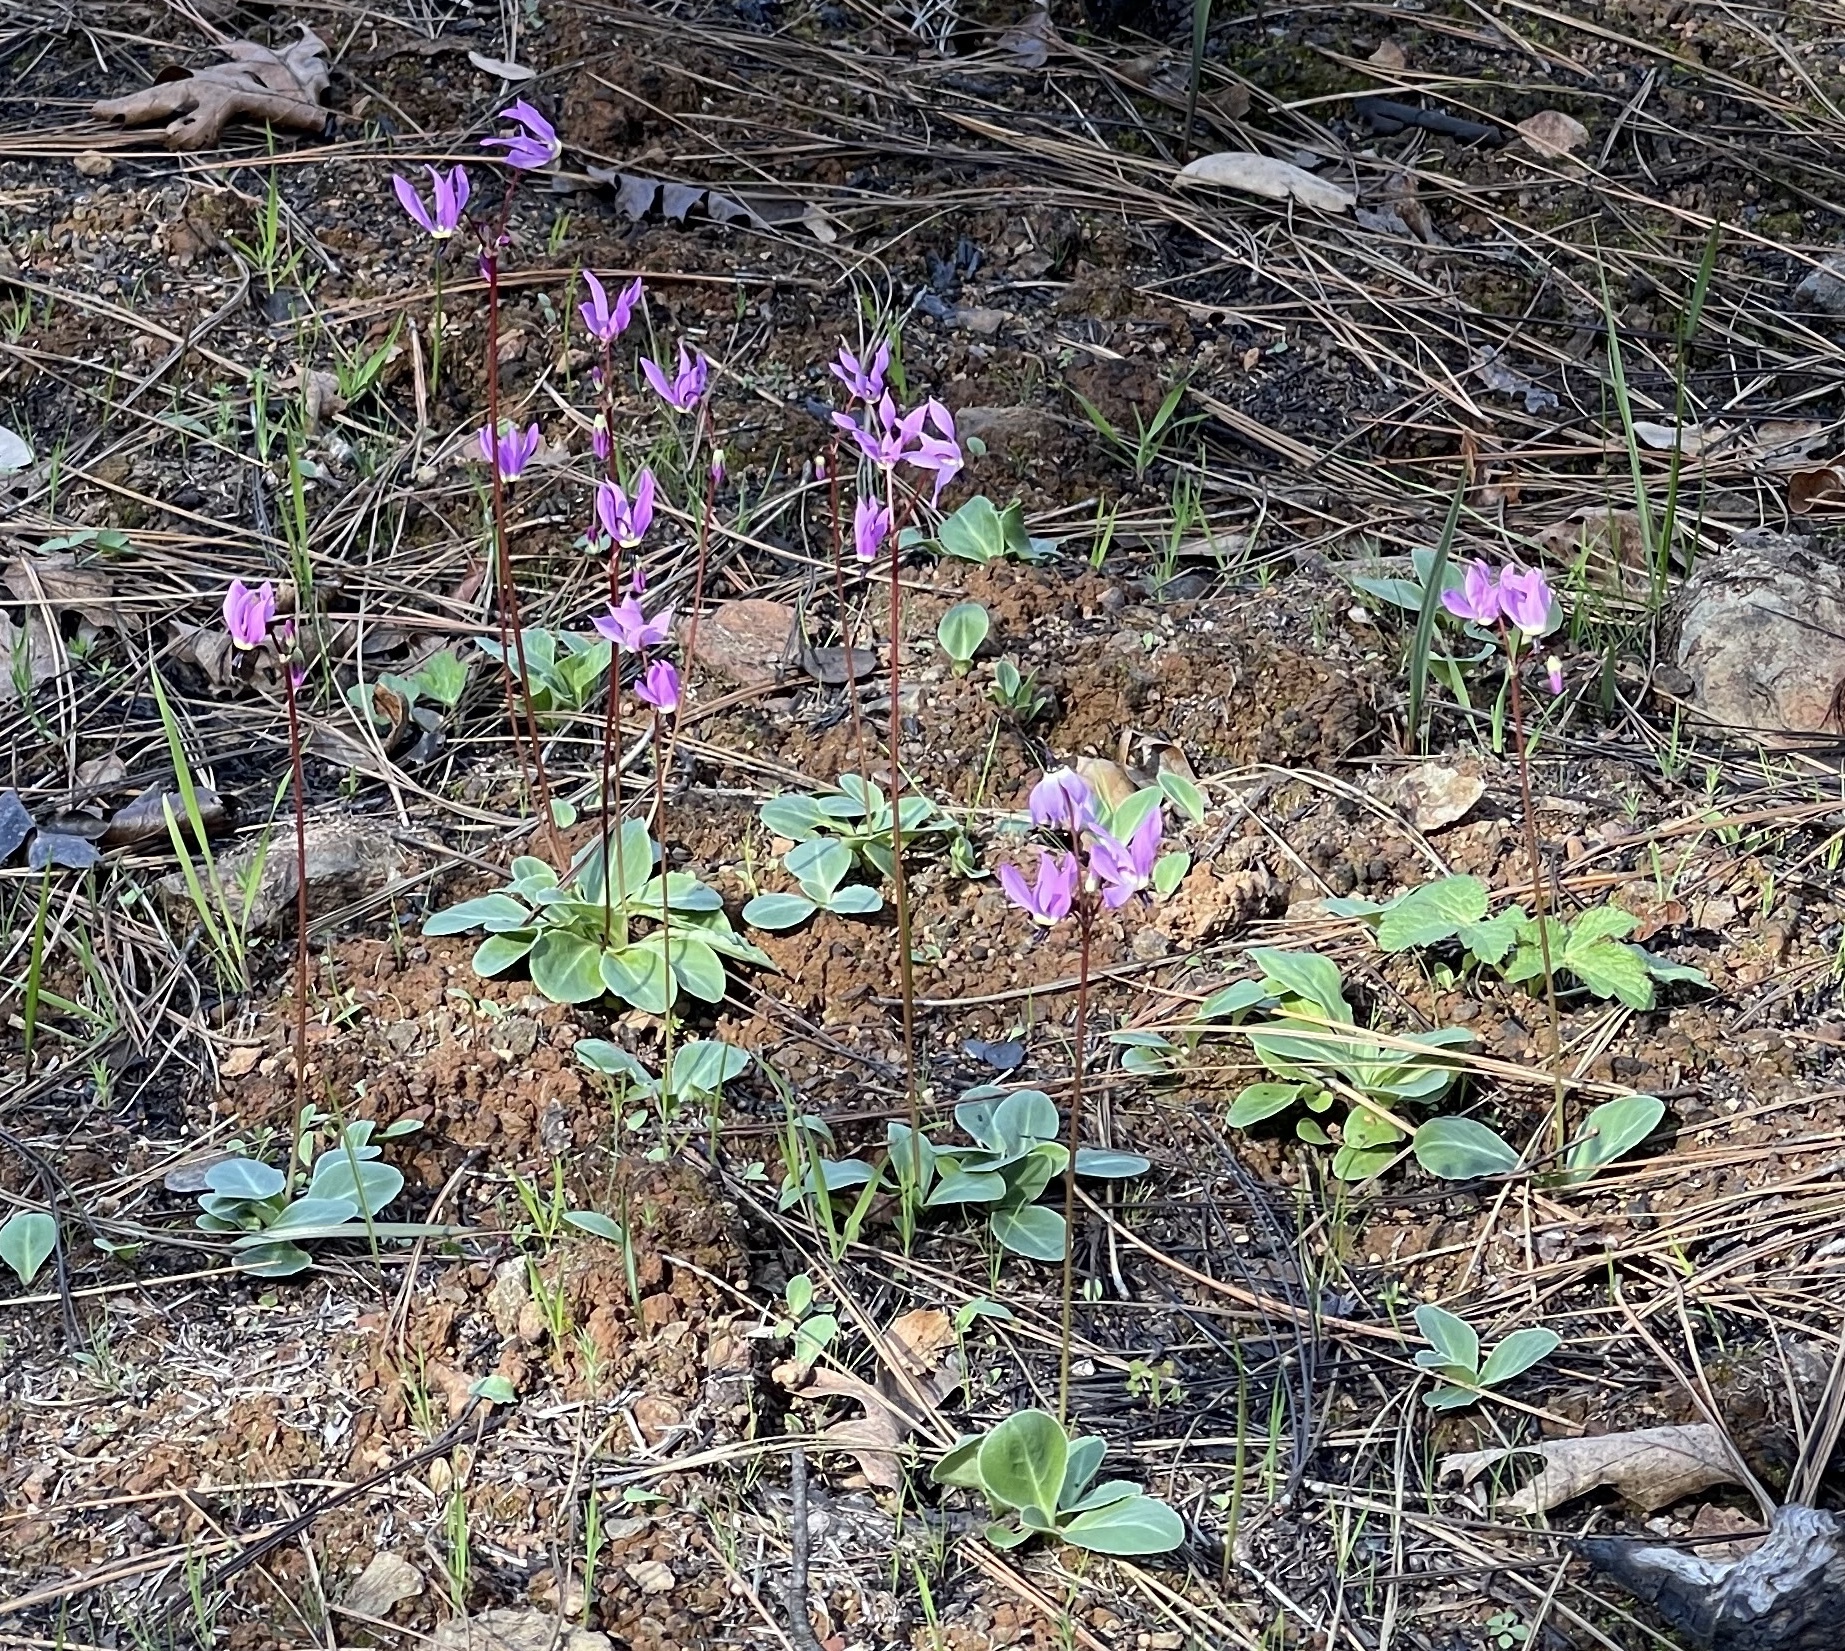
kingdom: Plantae
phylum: Tracheophyta
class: Magnoliopsida
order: Ericales
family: Primulaceae
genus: Dodecatheon
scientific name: Dodecatheon hendersonii
